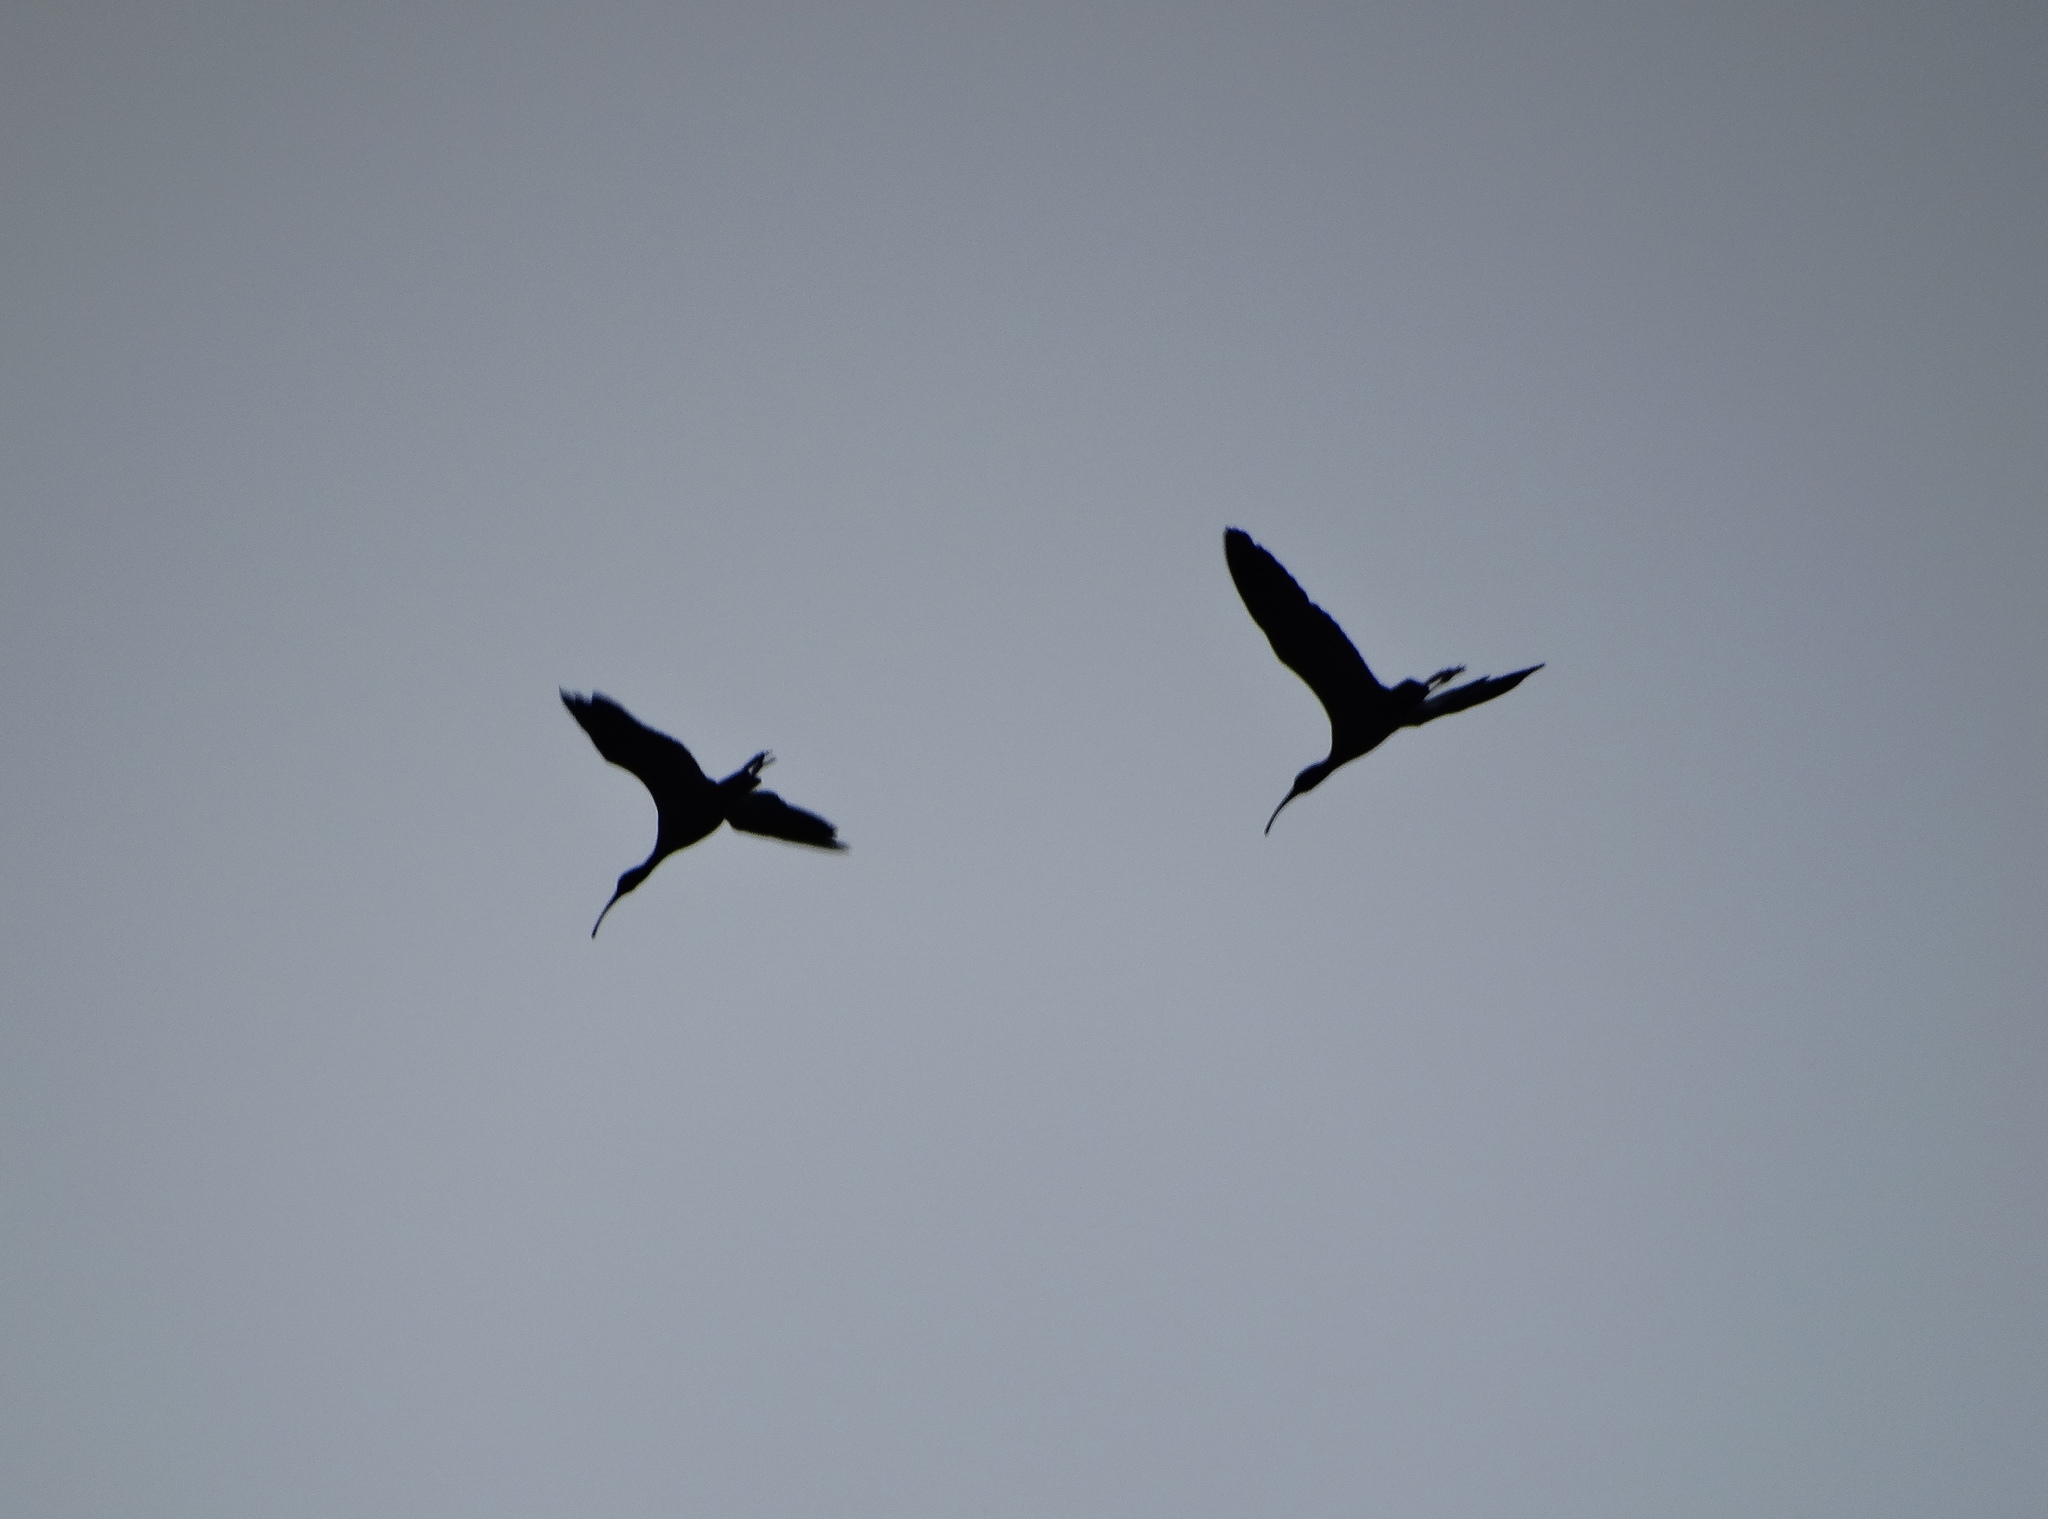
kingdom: Animalia
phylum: Chordata
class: Aves
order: Pelecaniformes
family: Threskiornithidae
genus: Plegadis
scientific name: Plegadis chihi
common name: White-faced ibis
